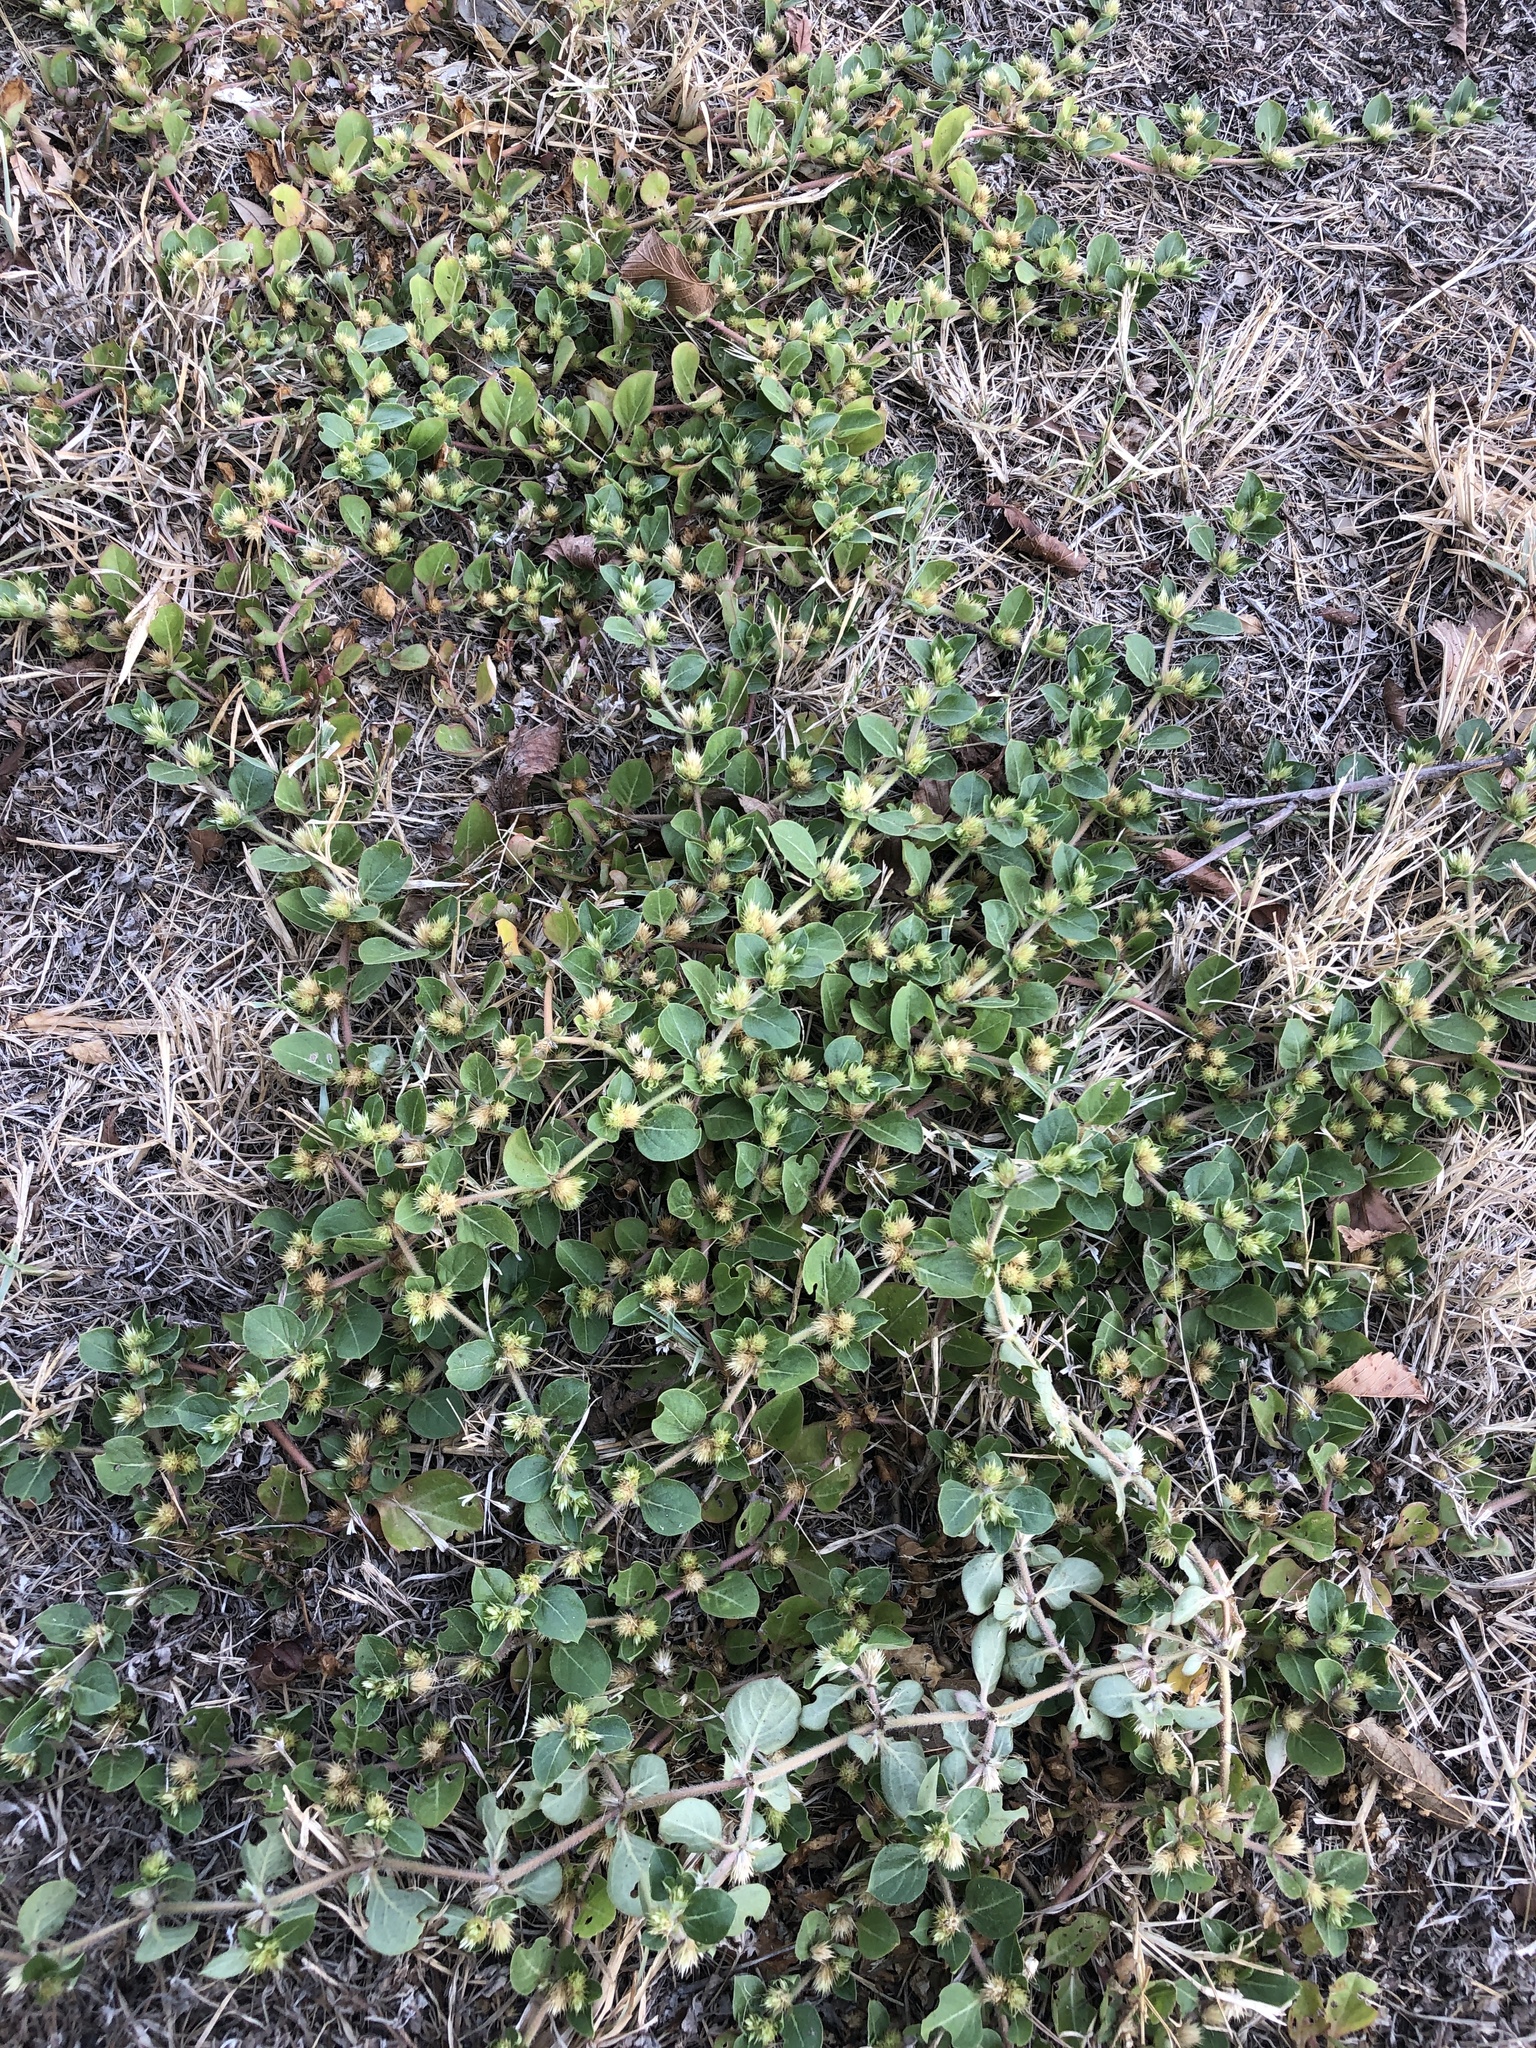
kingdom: Plantae
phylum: Tracheophyta
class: Magnoliopsida
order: Caryophyllales
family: Amaranthaceae
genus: Alternanthera
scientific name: Alternanthera pungens
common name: Khakiweed
